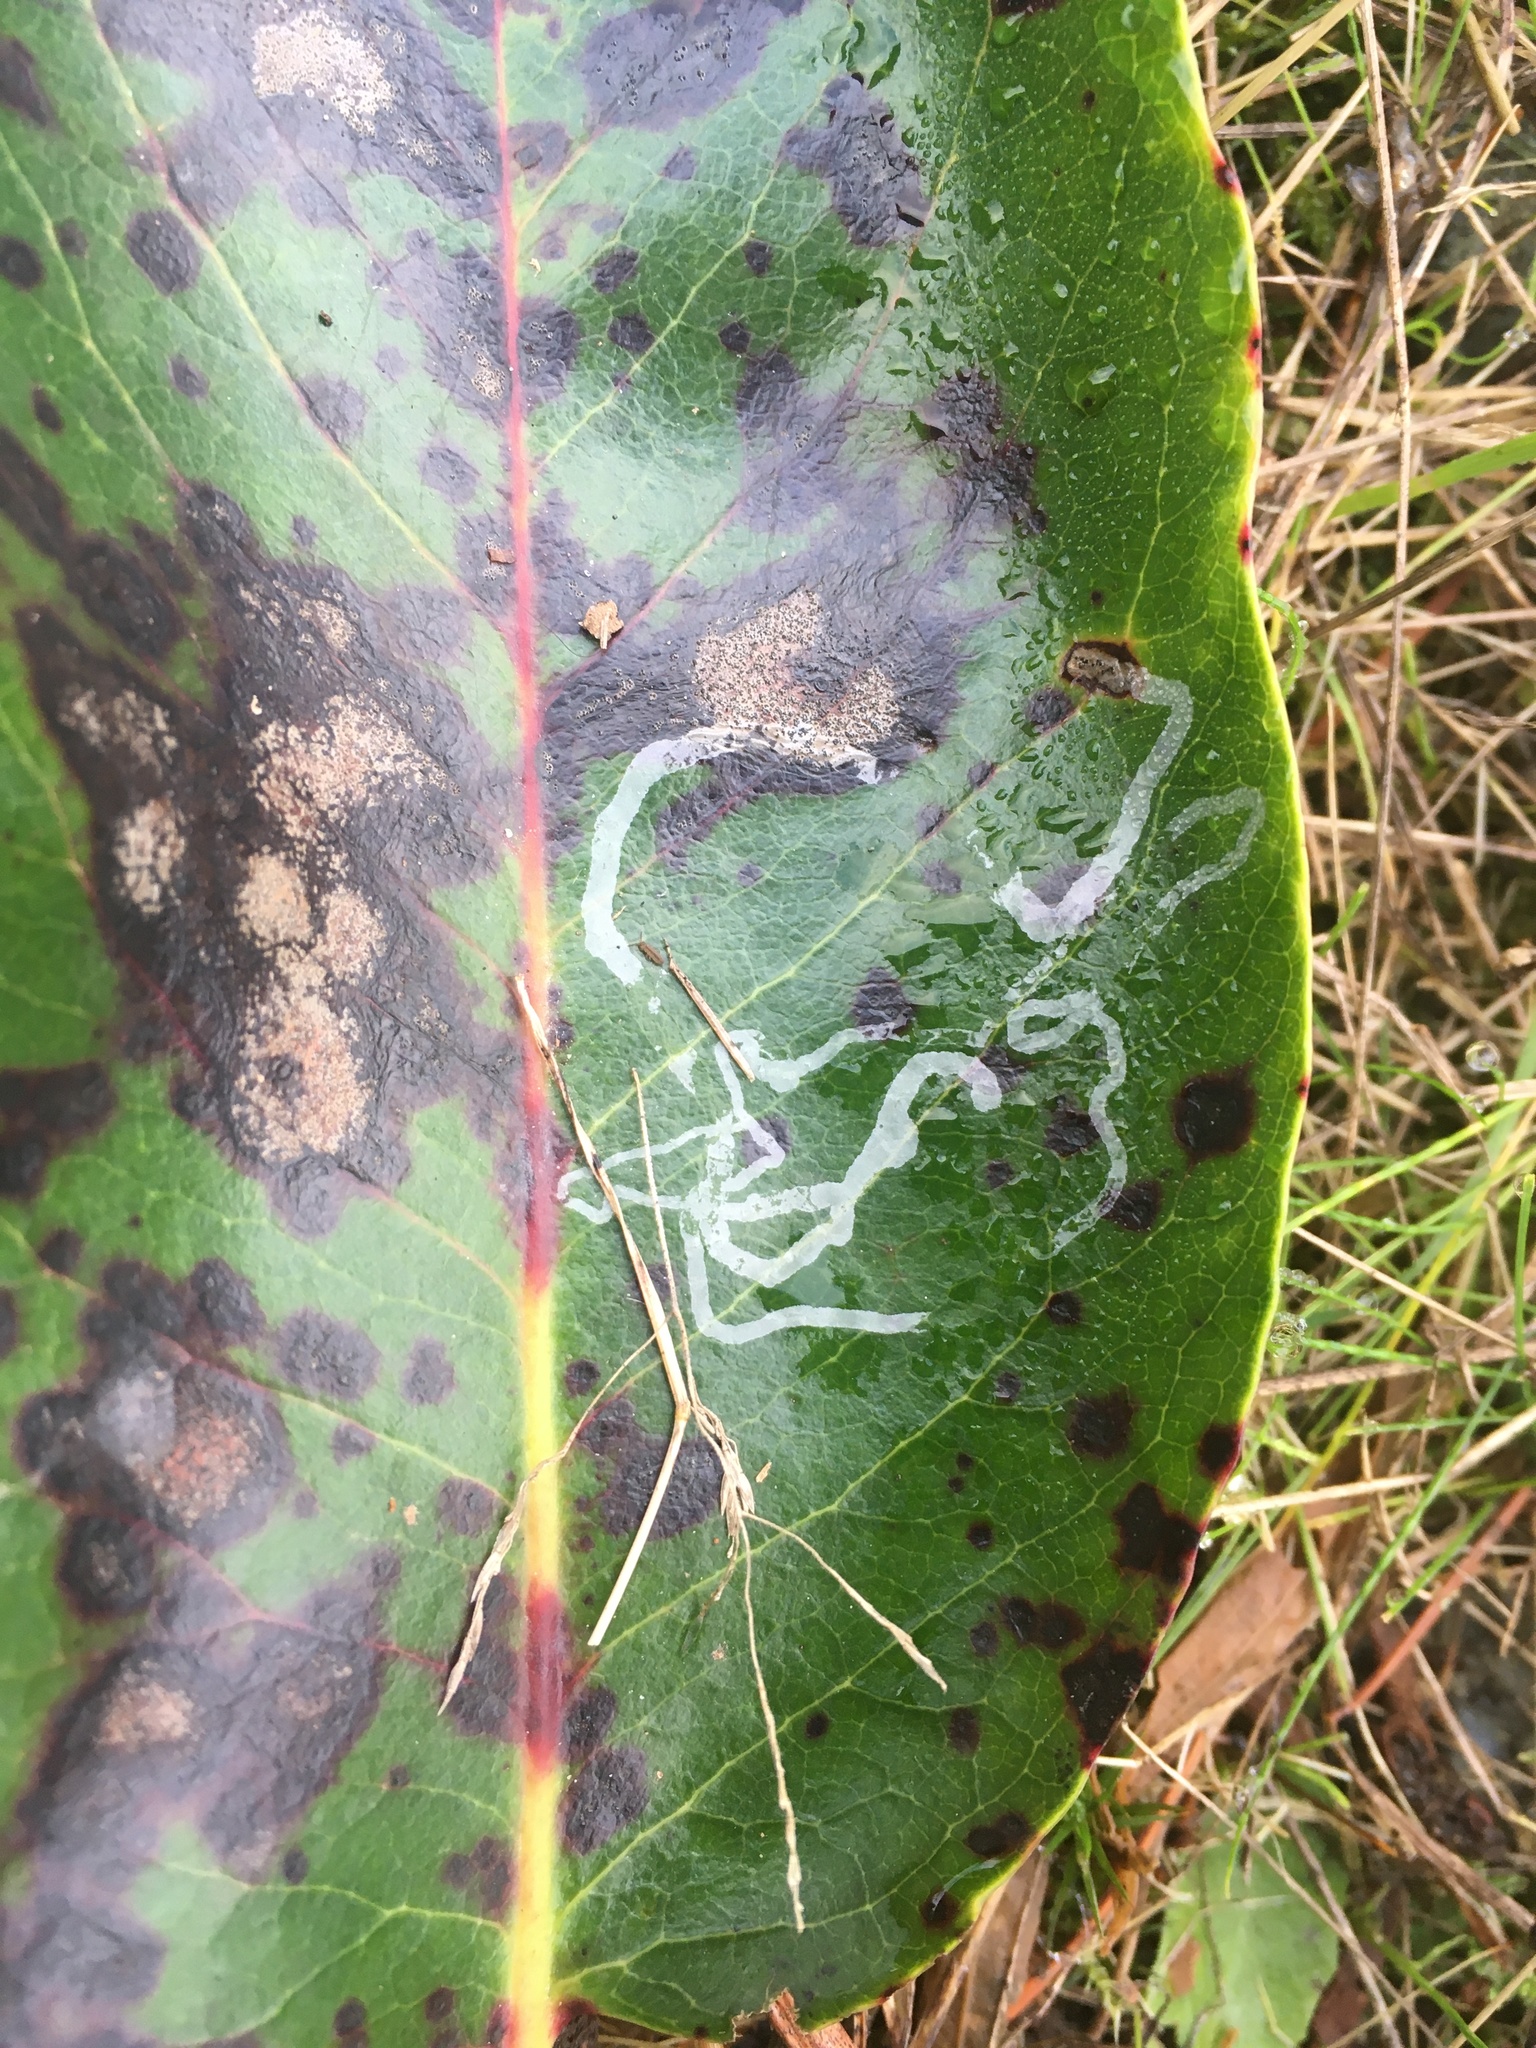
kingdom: Animalia
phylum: Arthropoda
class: Insecta
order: Lepidoptera
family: Gracillariidae
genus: Marmara
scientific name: Marmara arbutiella
